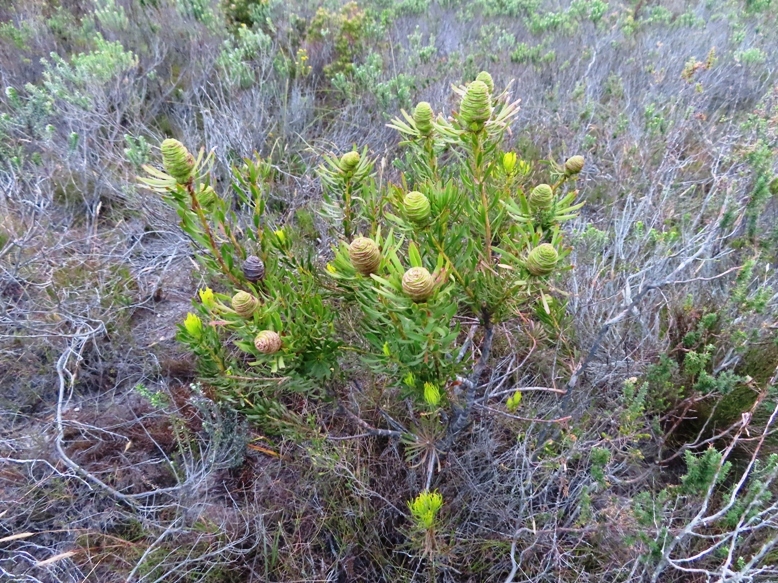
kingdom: Plantae
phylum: Tracheophyta
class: Magnoliopsida
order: Proteales
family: Proteaceae
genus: Leucadendron
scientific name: Leucadendron platyspermum
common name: Plate-seed conebush
